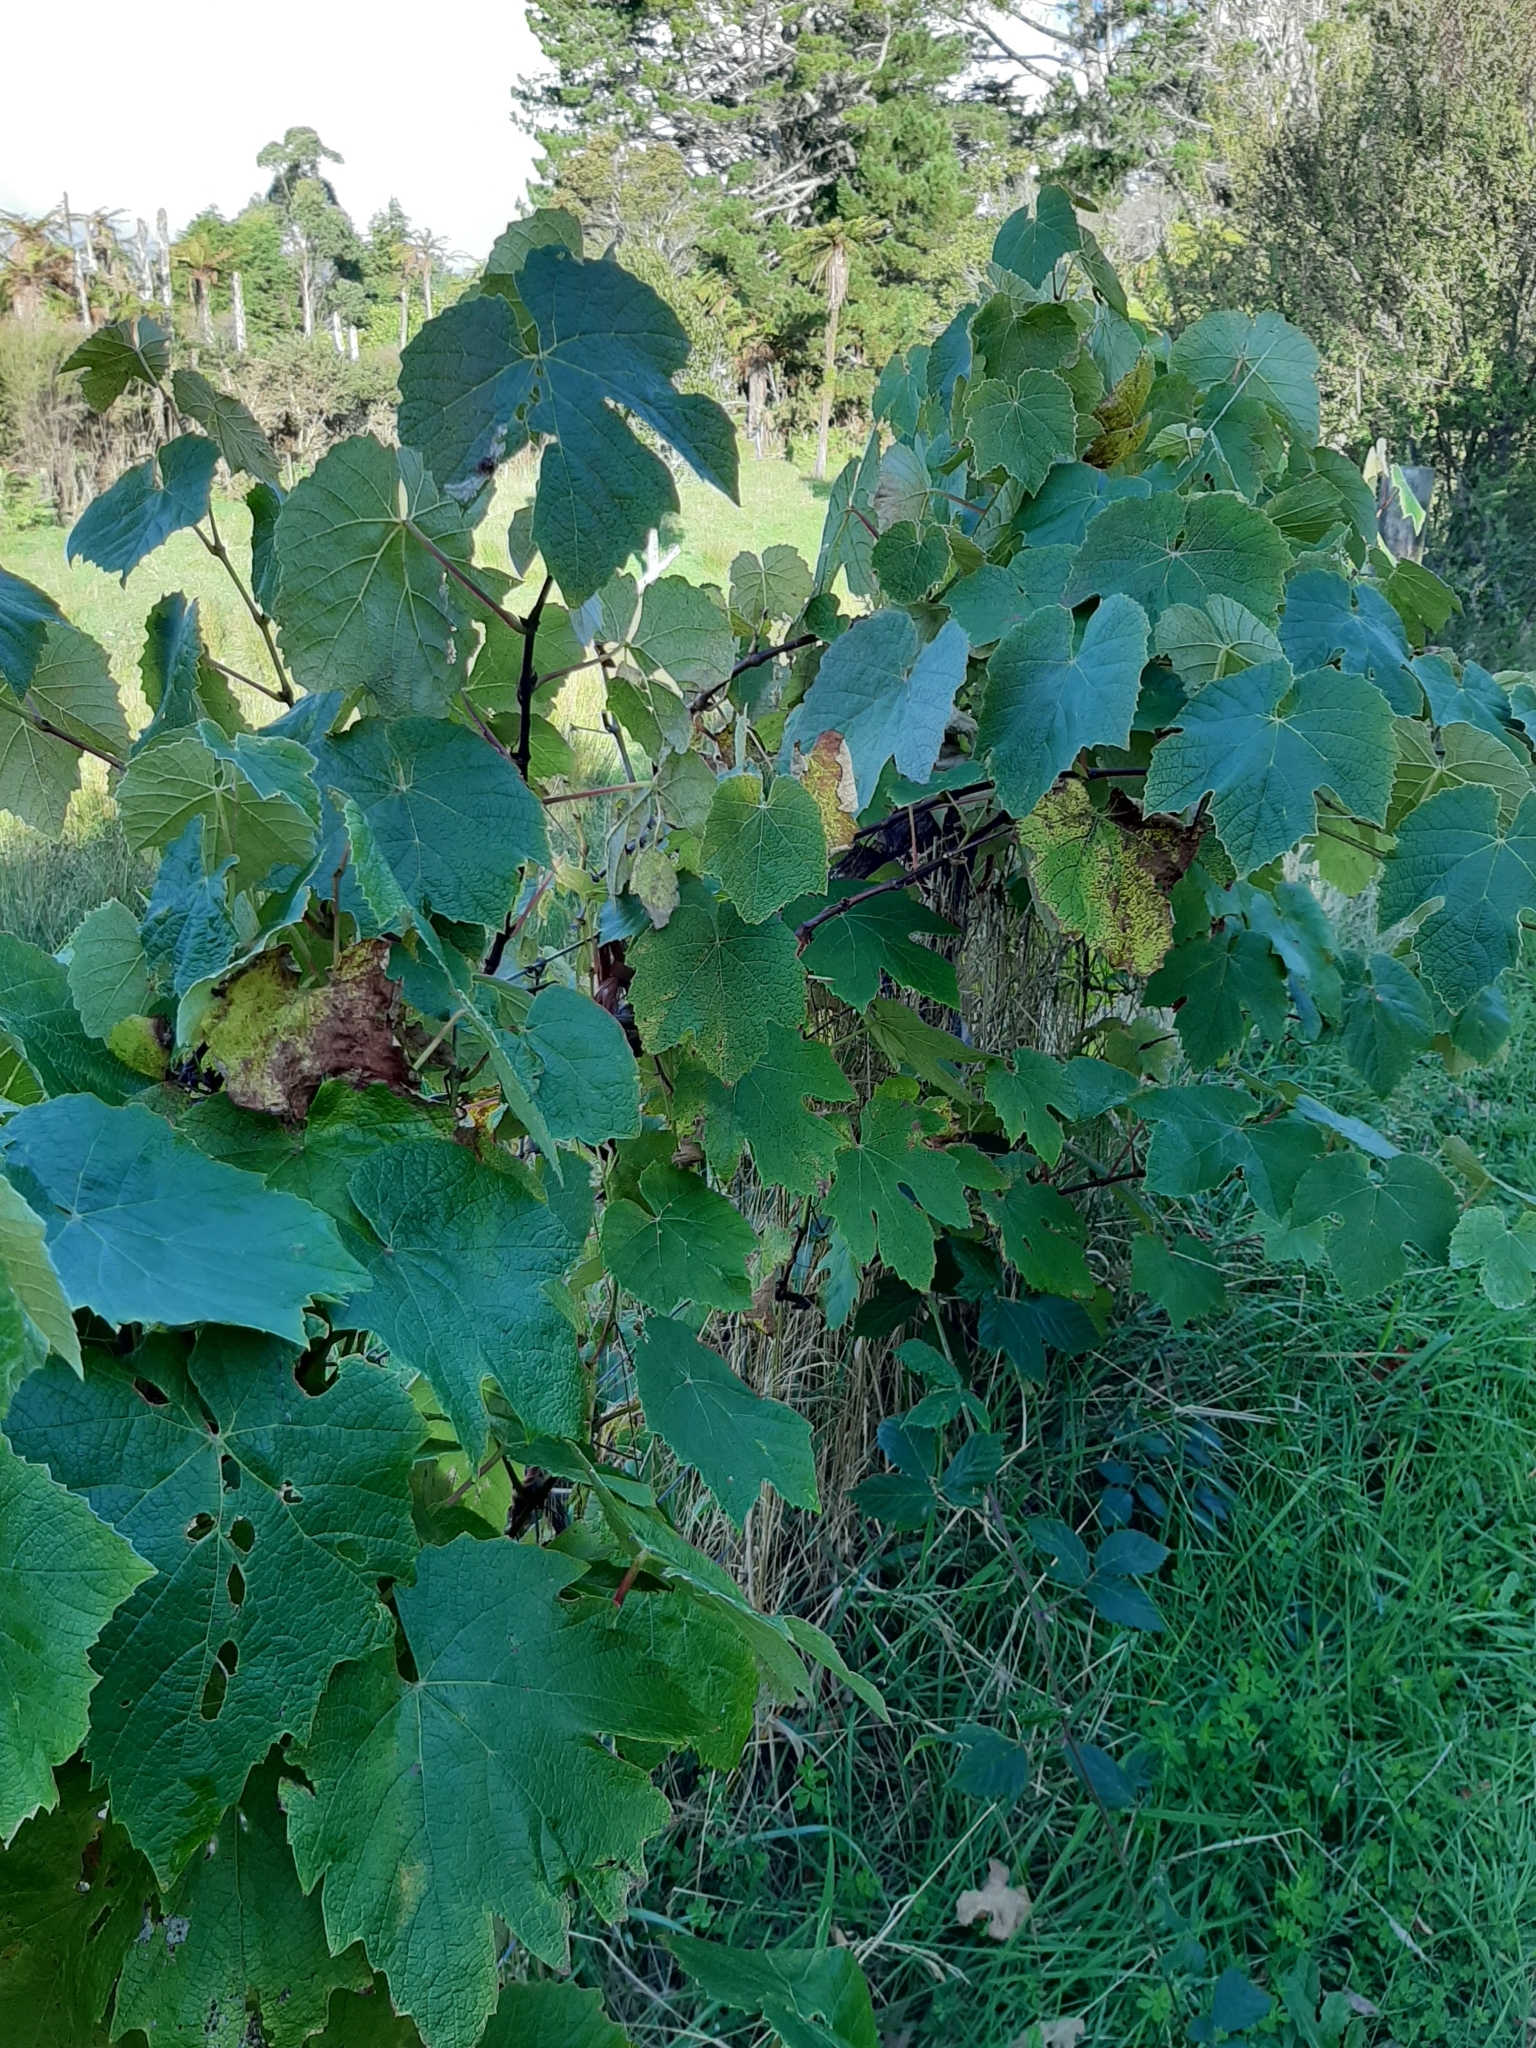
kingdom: Plantae
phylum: Tracheophyta
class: Magnoliopsida
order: Vitales
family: Vitaceae
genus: Vitis
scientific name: Vitis vinifera
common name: Grape-vine
